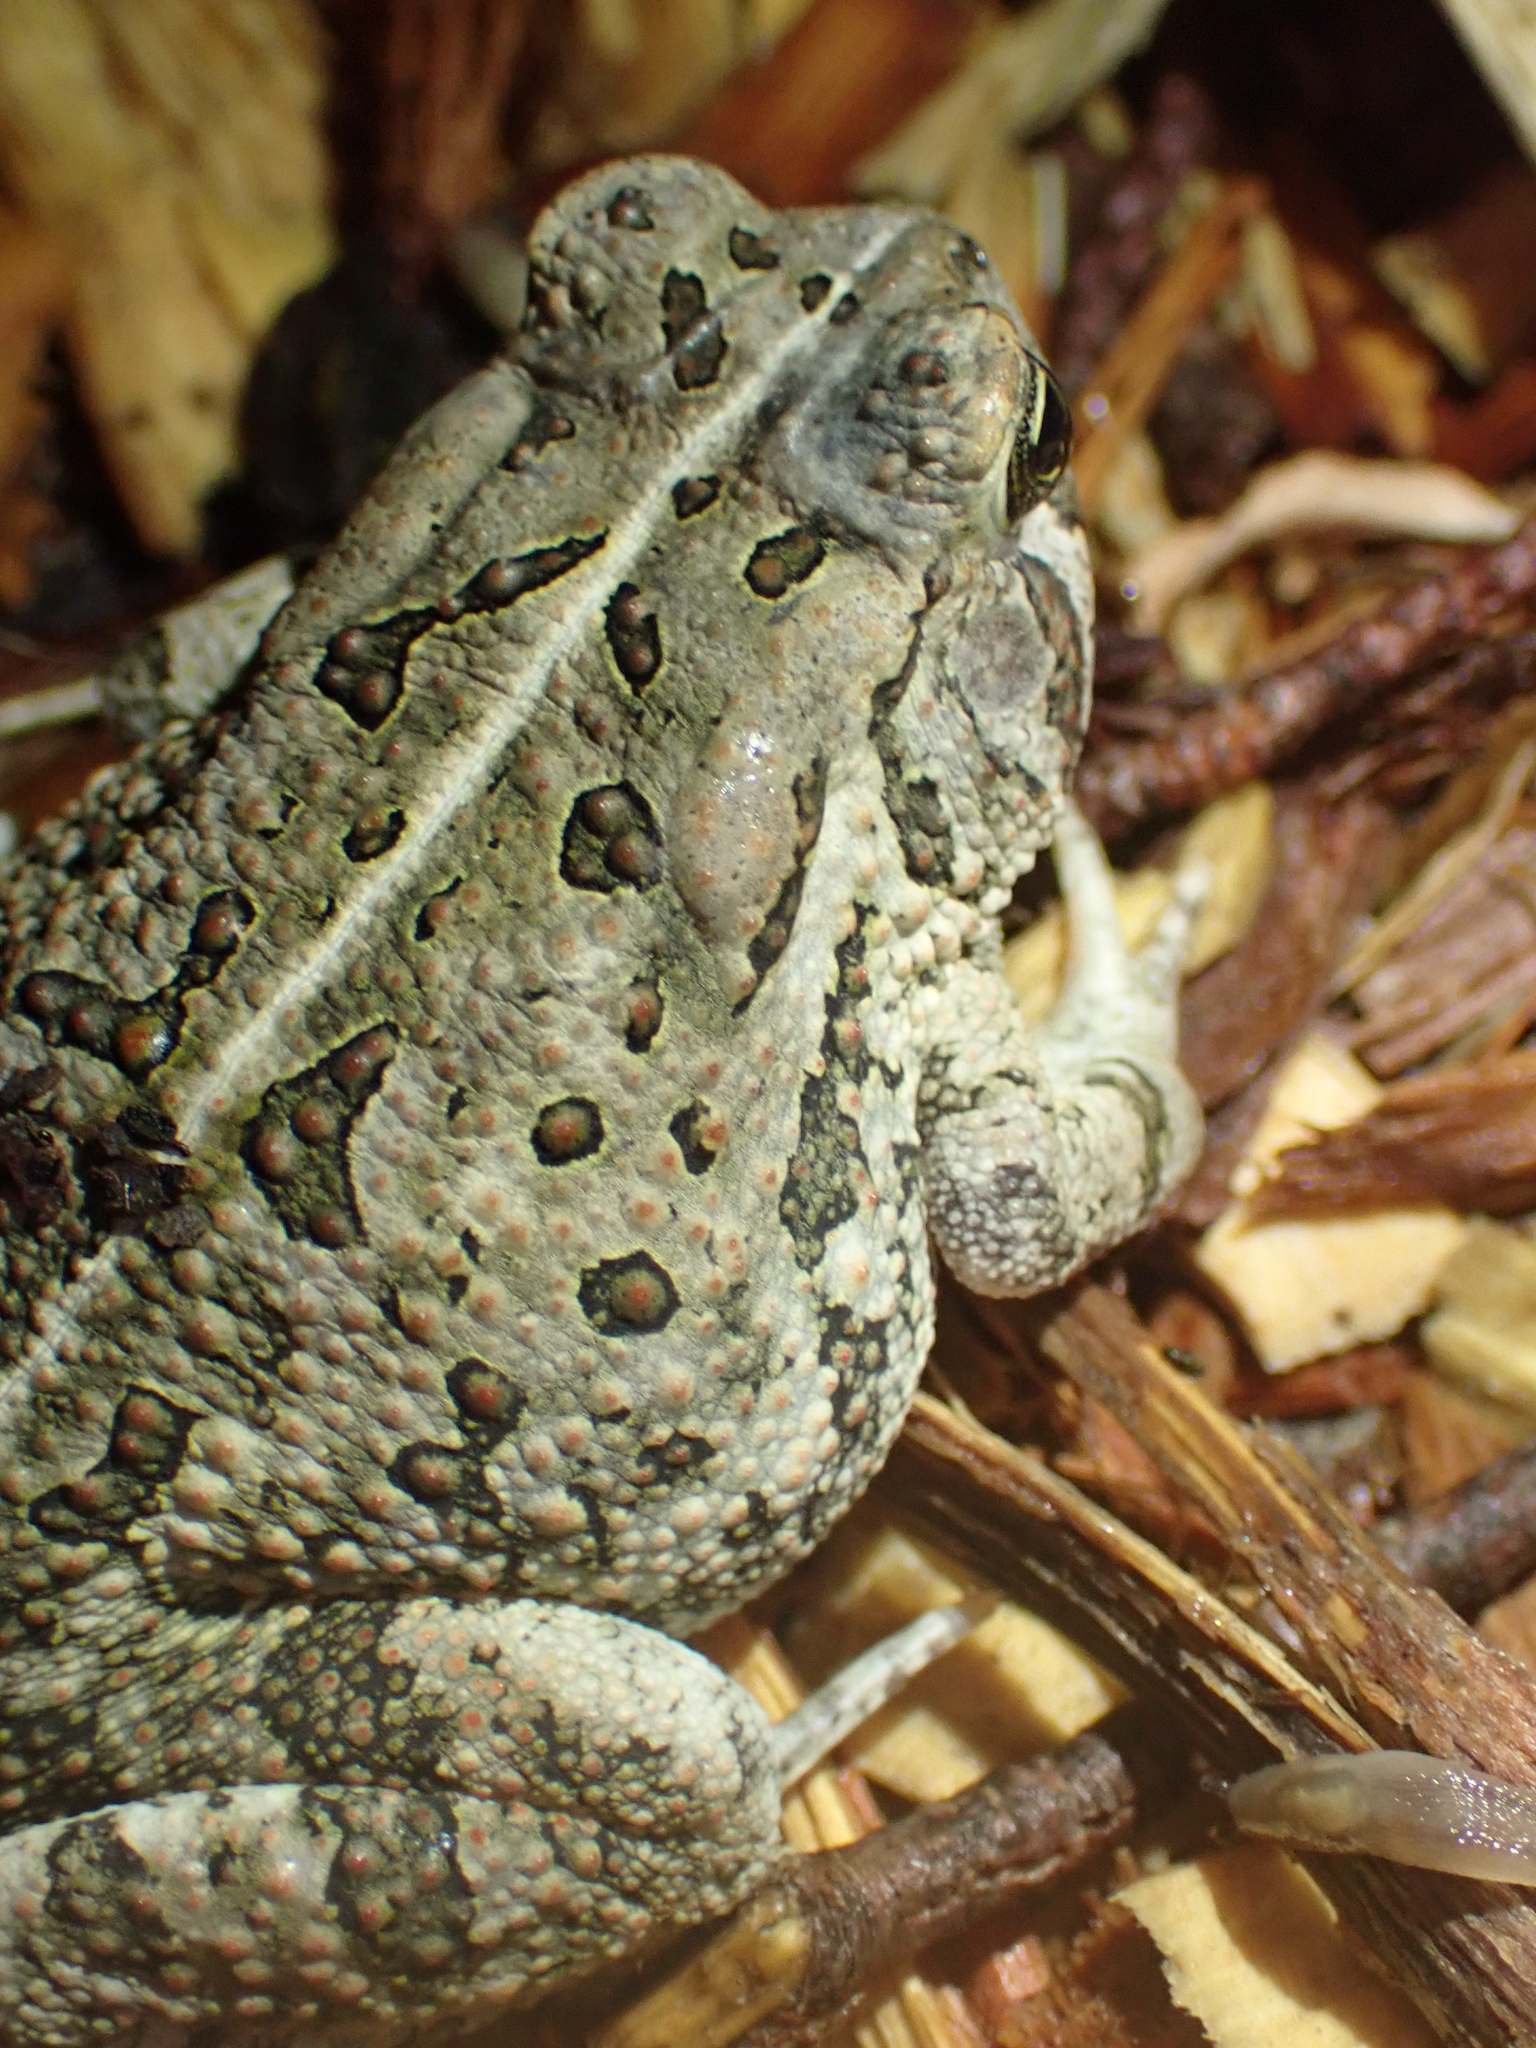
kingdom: Animalia
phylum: Chordata
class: Amphibia
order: Anura
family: Bufonidae
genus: Anaxyrus
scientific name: Anaxyrus fowleri
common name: Fowler's toad
